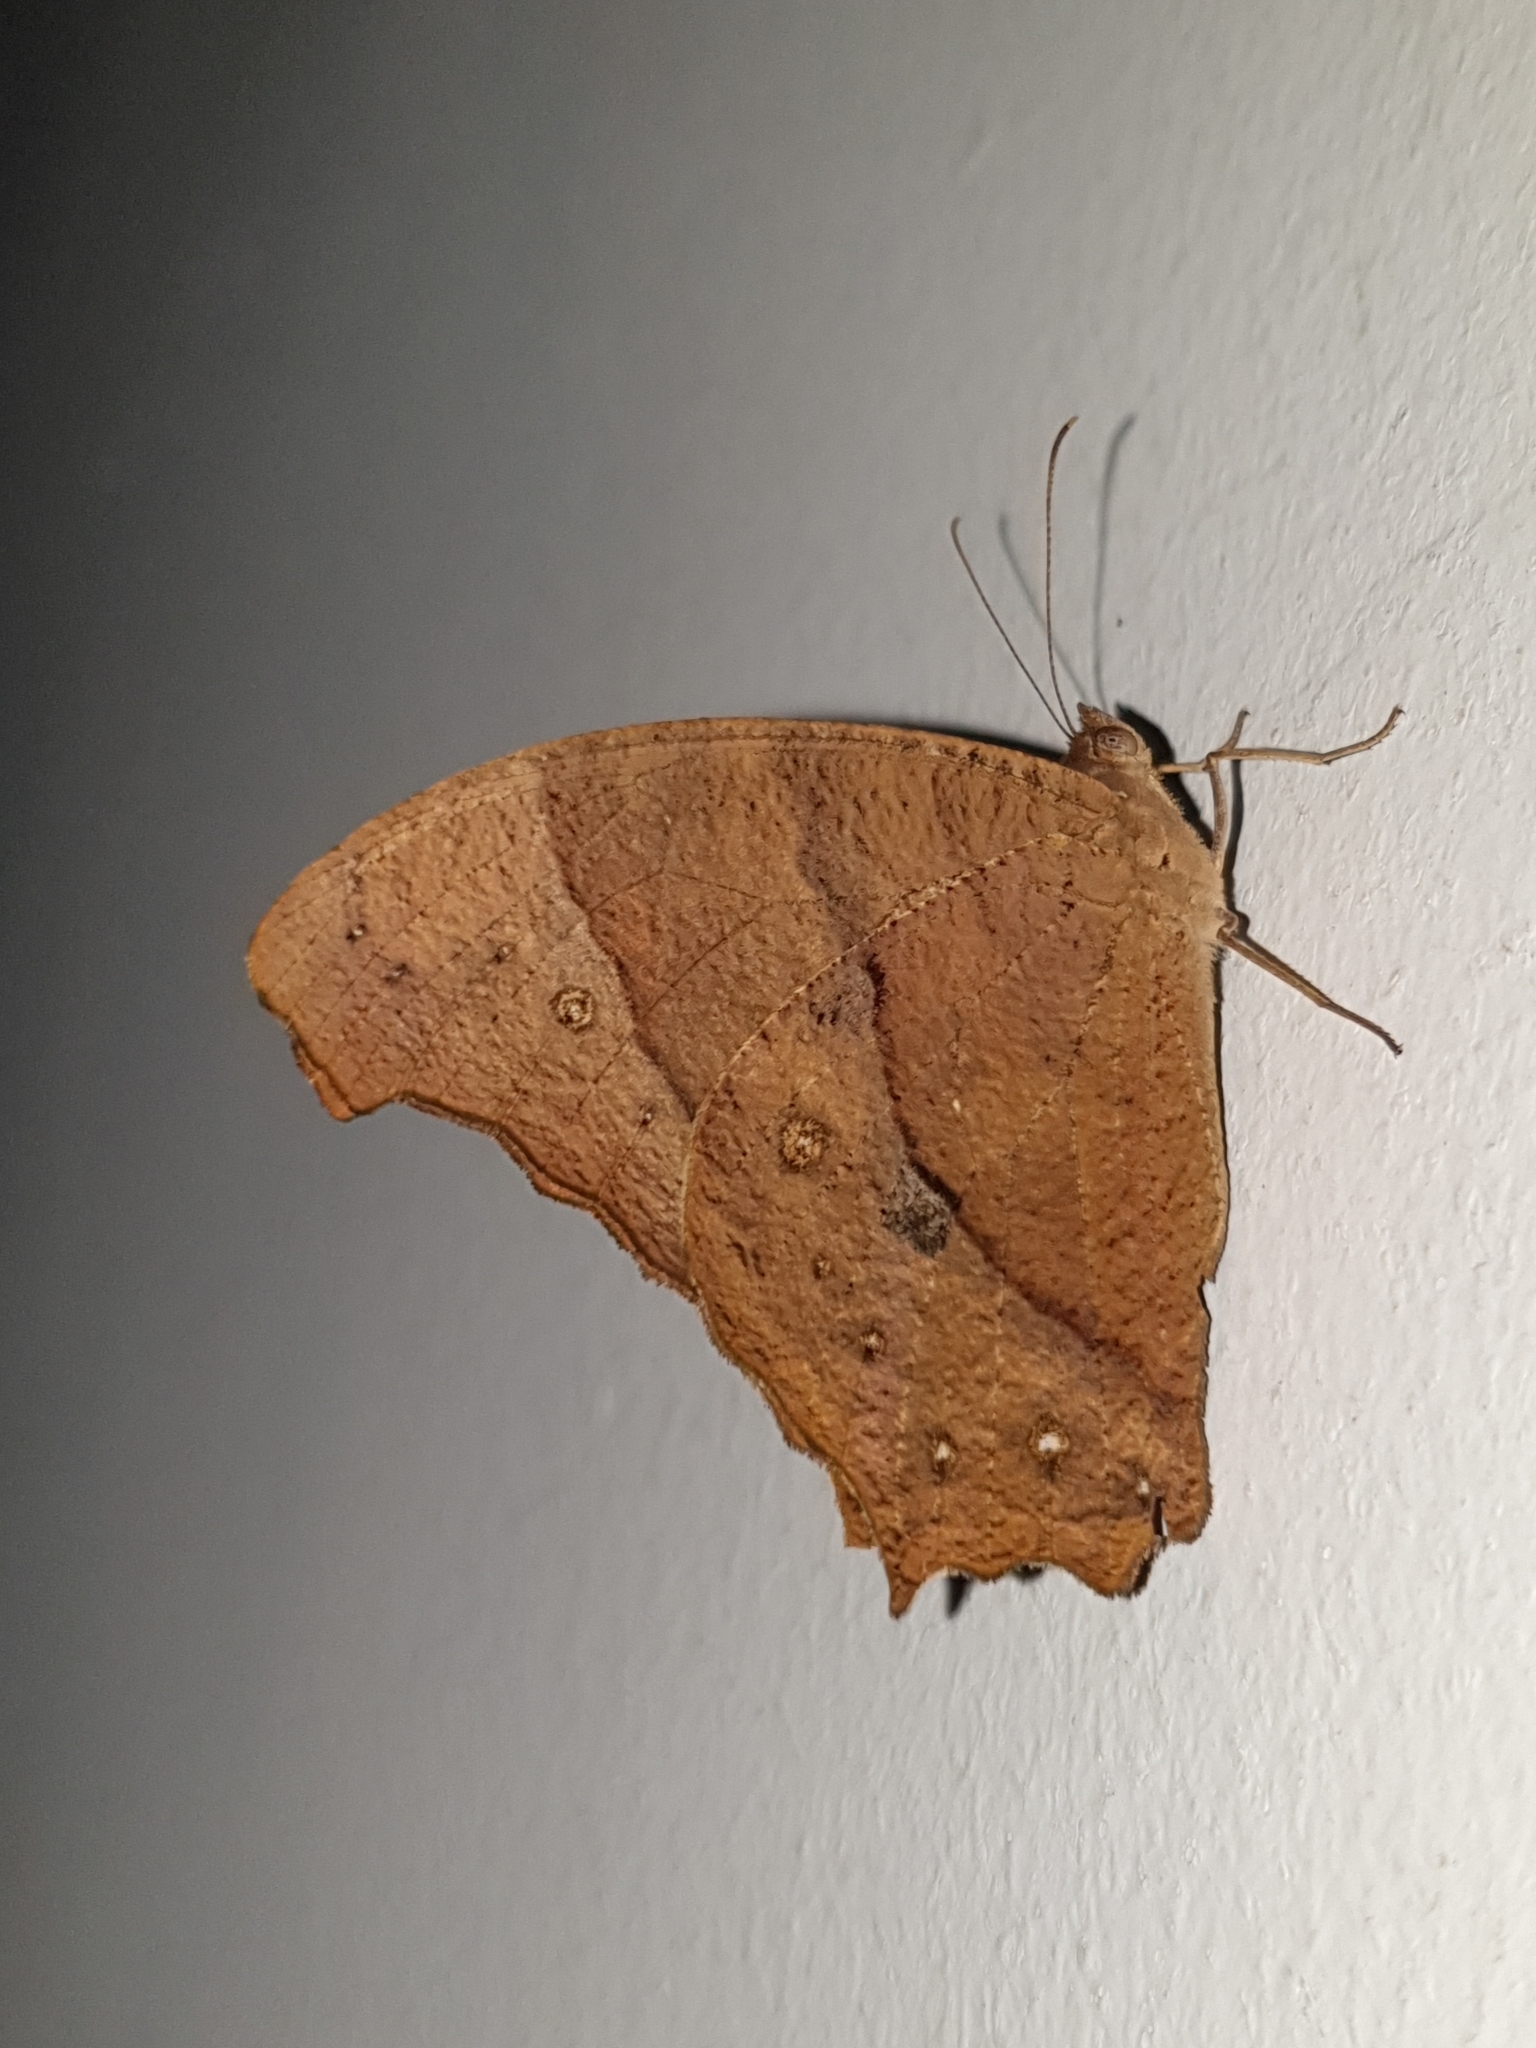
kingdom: Animalia
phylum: Arthropoda
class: Insecta
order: Lepidoptera
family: Nymphalidae
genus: Melanitis
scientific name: Melanitis leda
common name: Twilight brown
